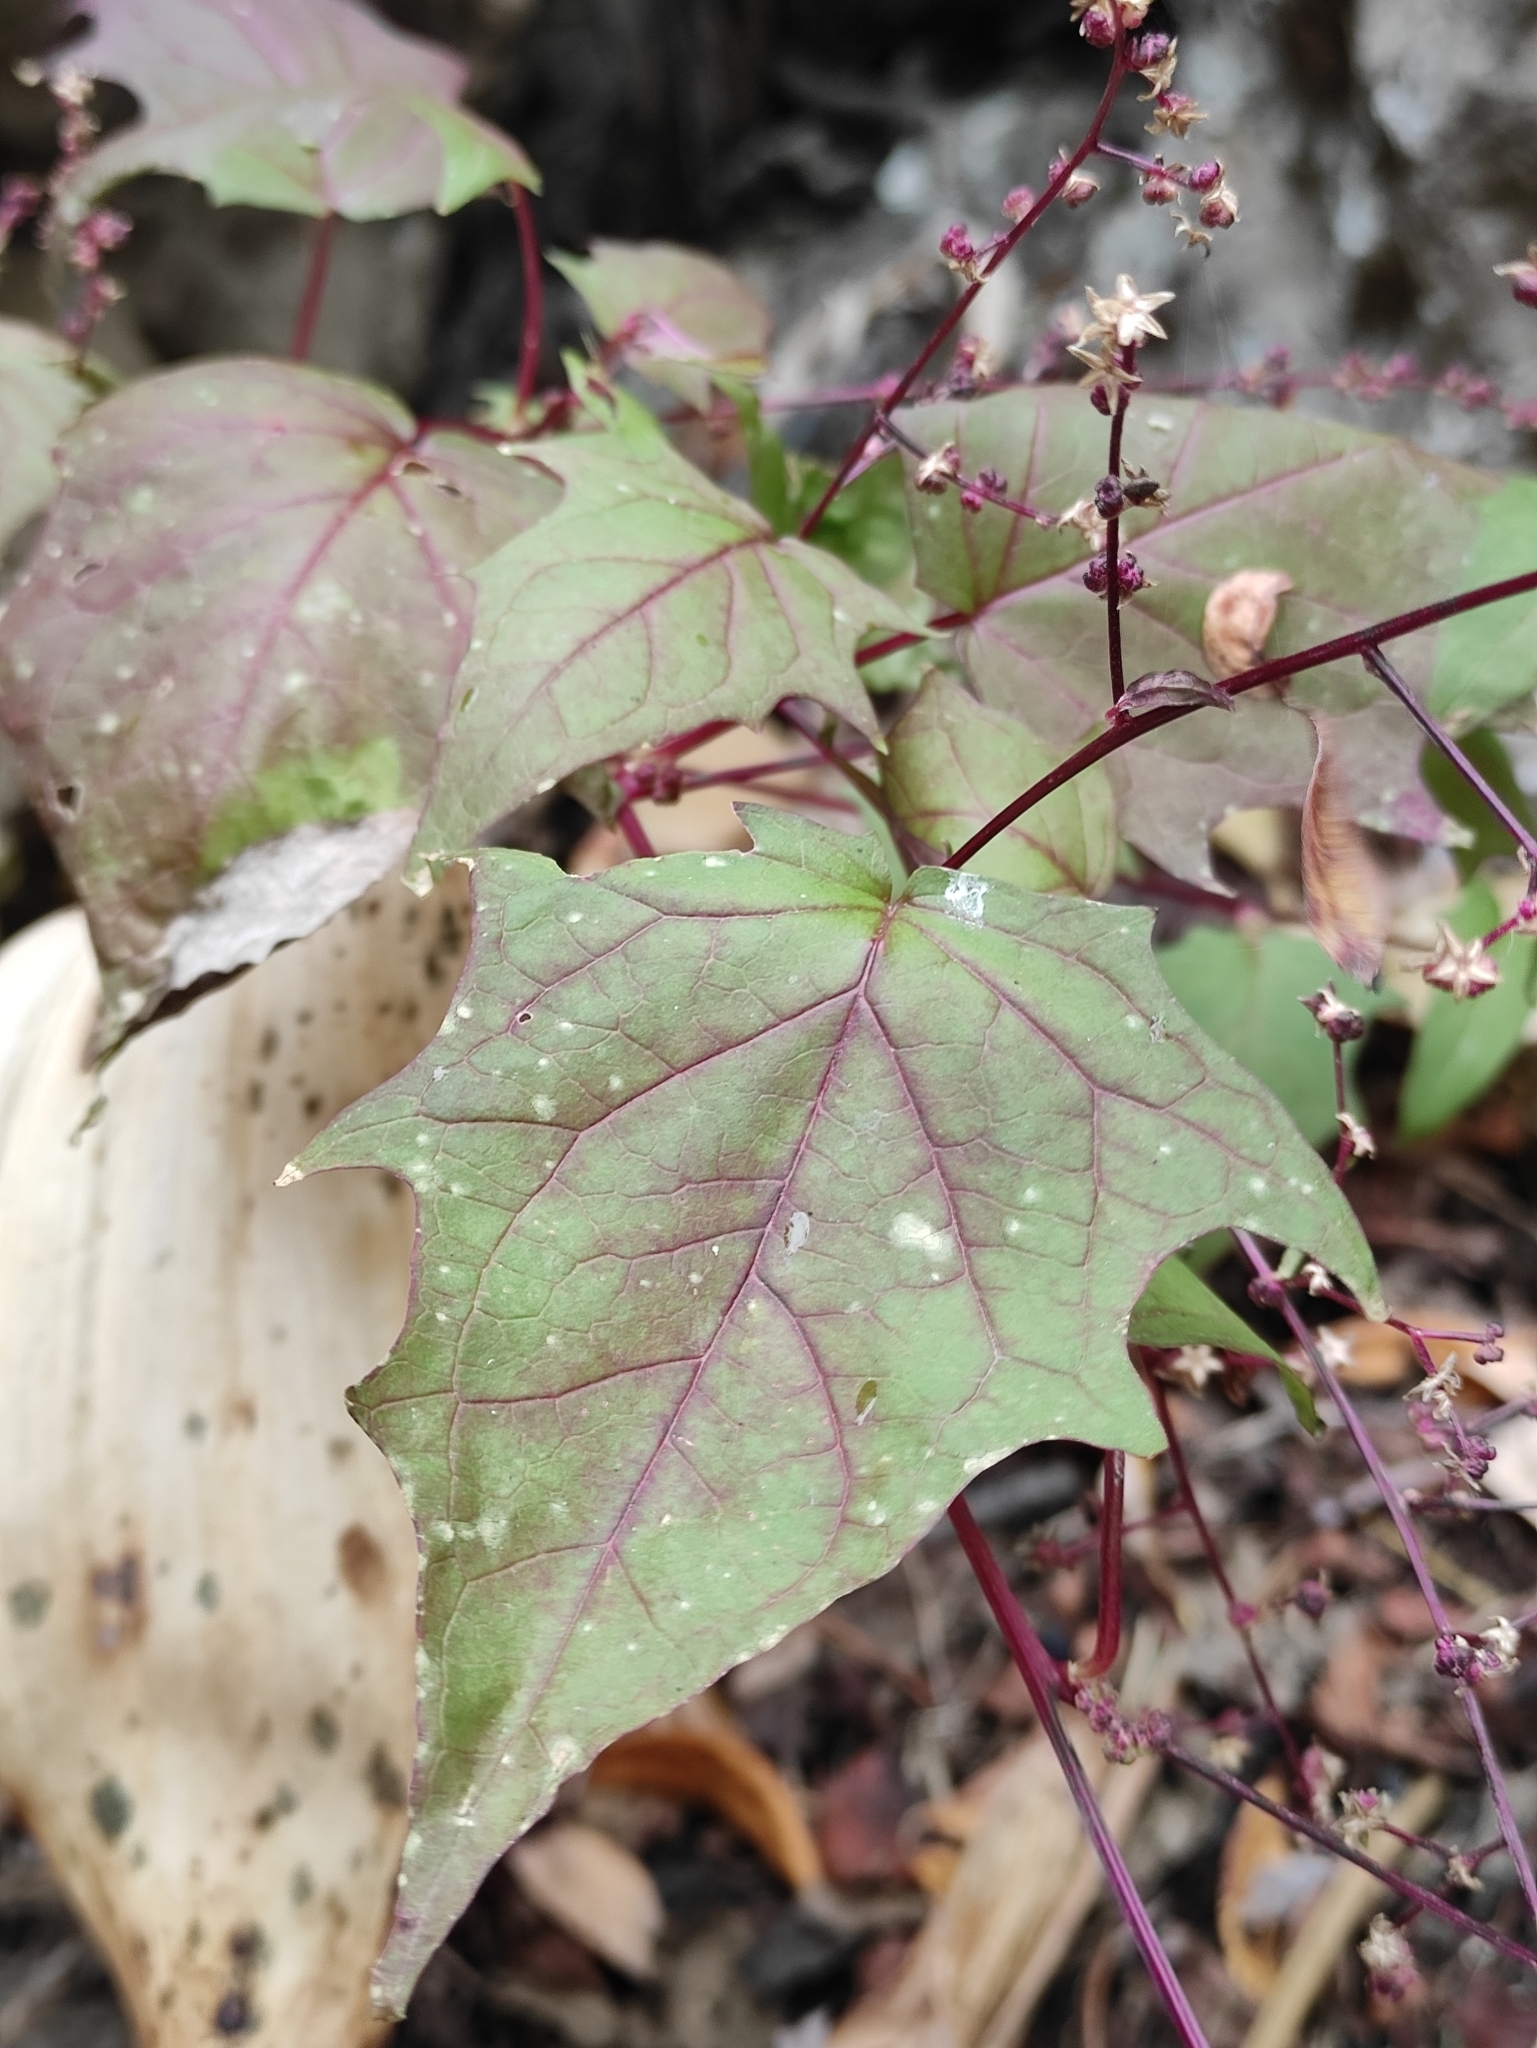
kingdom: Plantae
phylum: Tracheophyta
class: Magnoliopsida
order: Caryophyllales
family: Amaranthaceae
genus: Chenopodiastrum
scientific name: Chenopodiastrum hybridum
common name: Mapleleaf goosefoot
